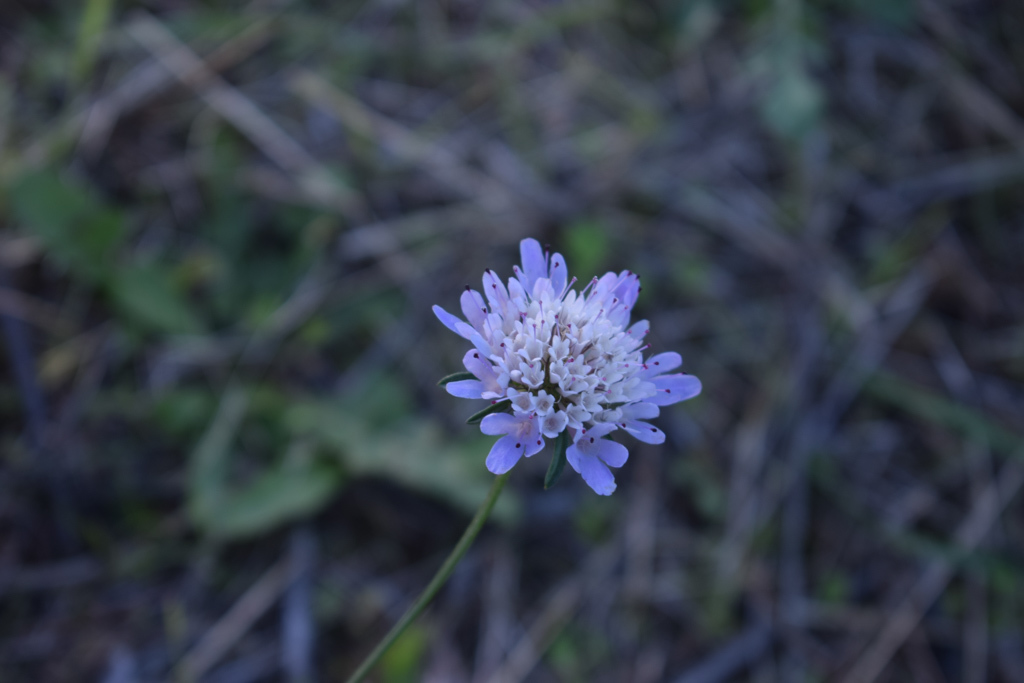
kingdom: Plantae
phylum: Tracheophyta
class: Magnoliopsida
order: Dipsacales
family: Caprifoliaceae
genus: Knautia
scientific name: Knautia arvensis
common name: Field scabiosa
